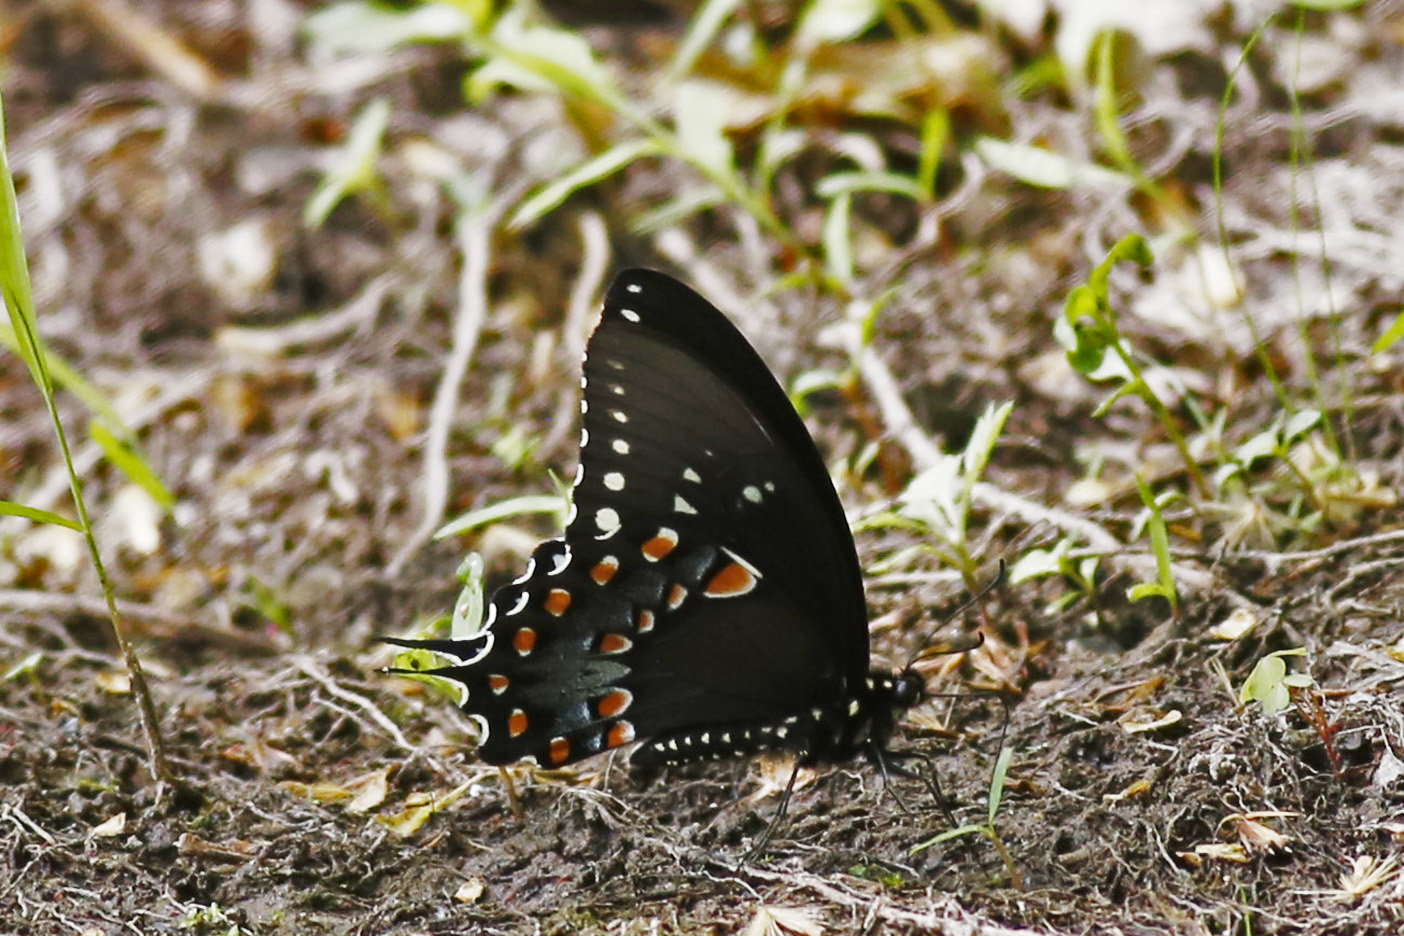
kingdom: Animalia
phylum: Arthropoda
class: Insecta
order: Lepidoptera
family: Papilionidae
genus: Papilio
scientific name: Papilio troilus
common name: Spicebush swallowtail
